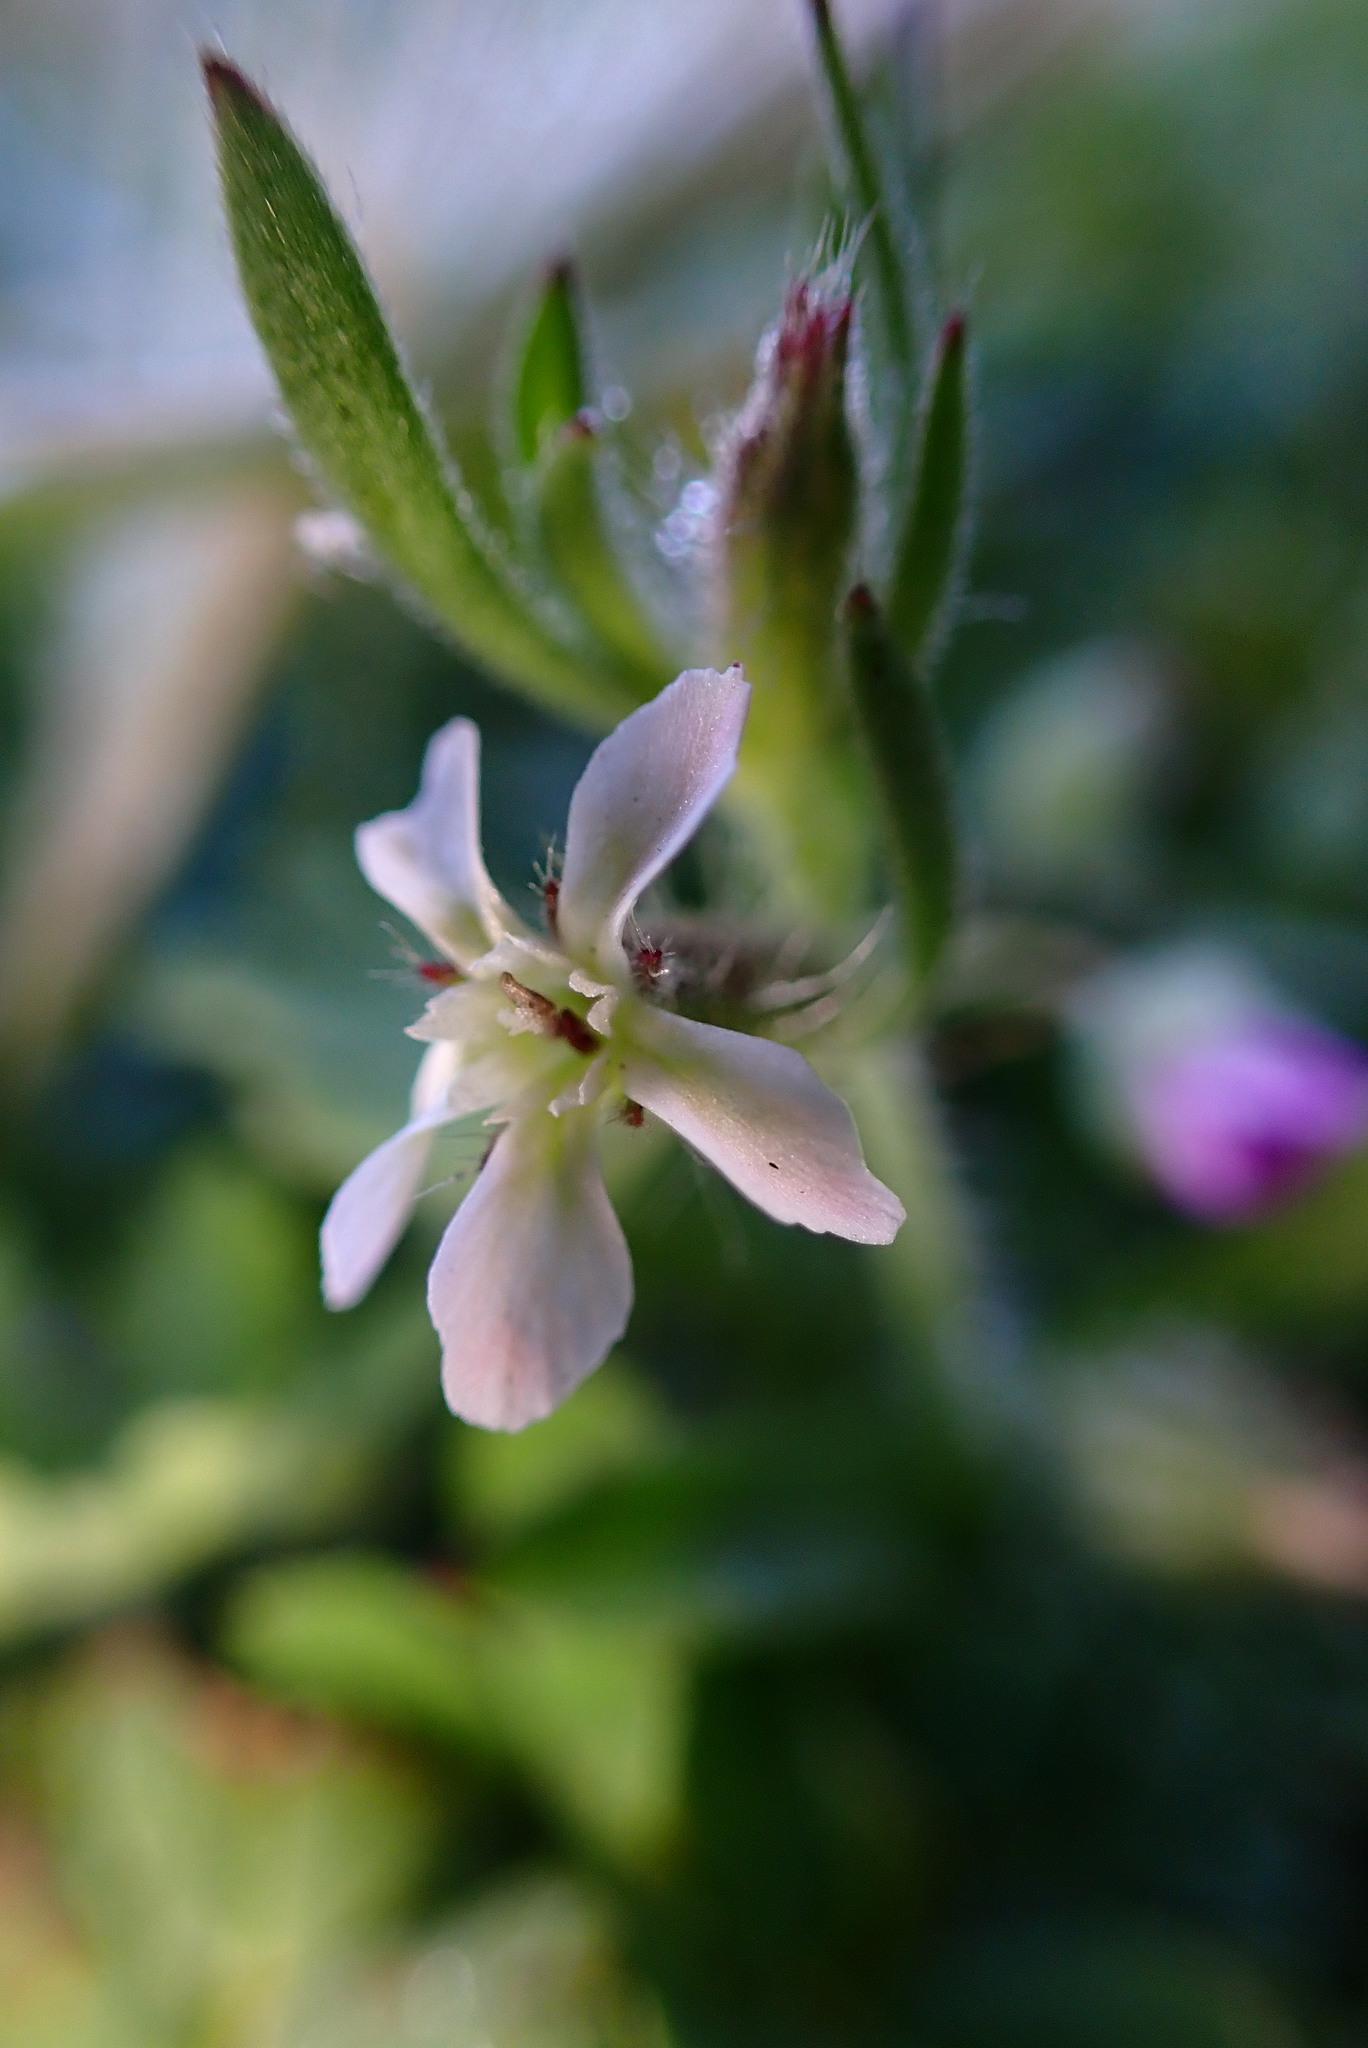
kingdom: Plantae
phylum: Tracheophyta
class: Magnoliopsida
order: Caryophyllales
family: Caryophyllaceae
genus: Silene
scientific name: Silene gallica
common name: Small-flowered catchfly
